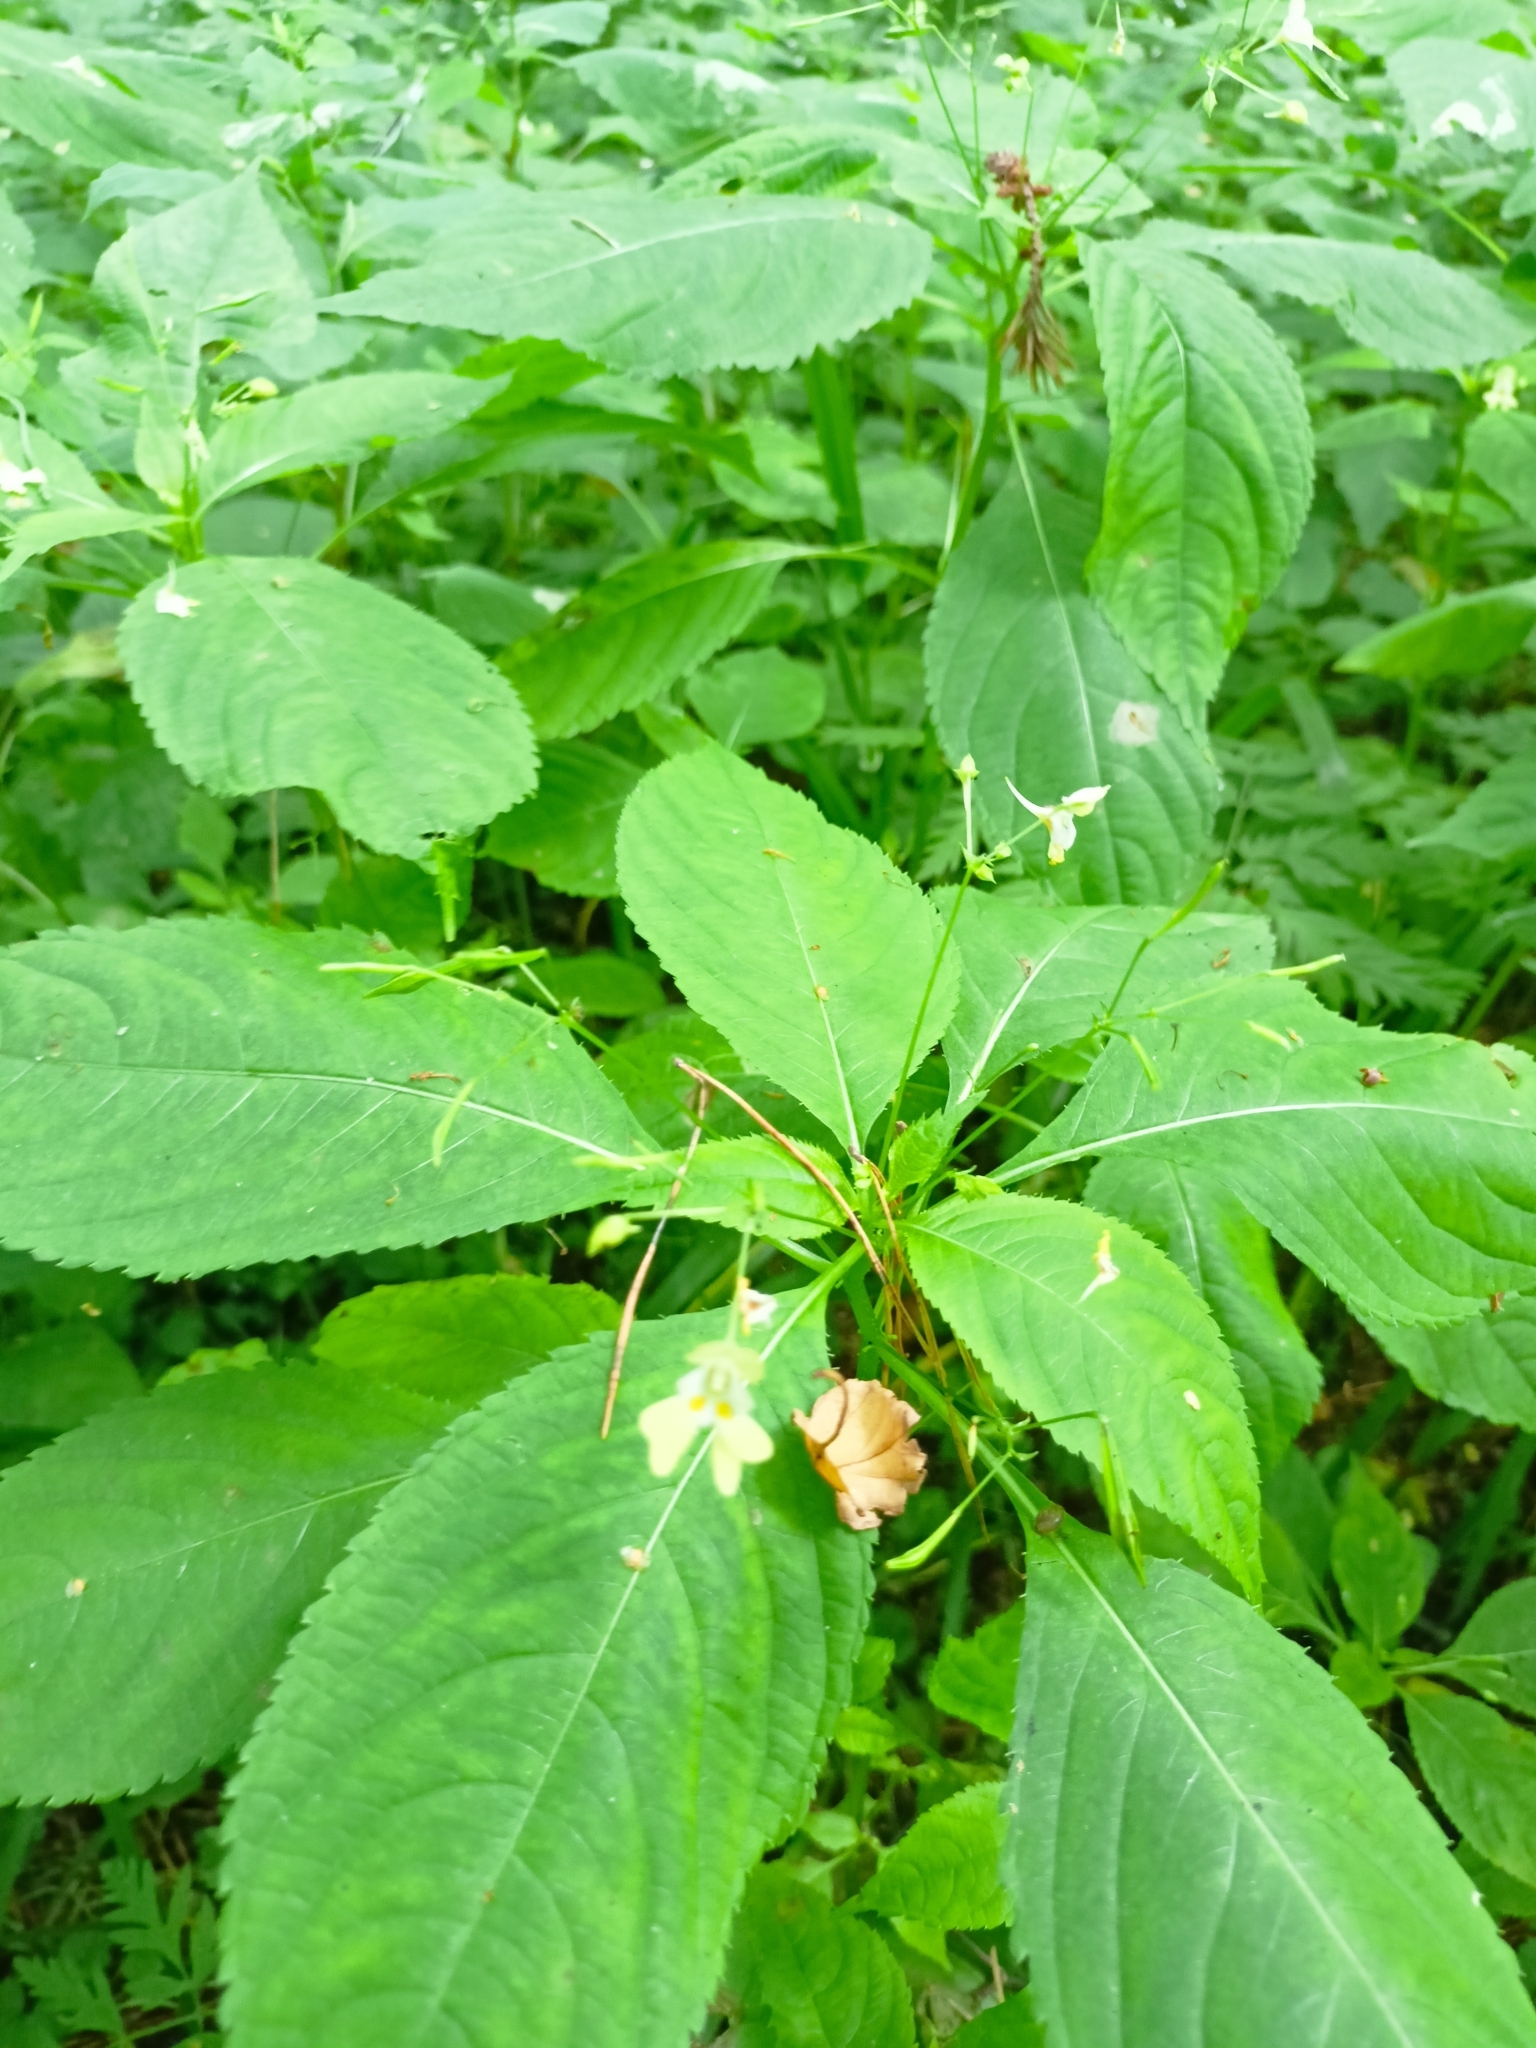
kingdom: Plantae
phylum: Tracheophyta
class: Magnoliopsida
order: Ericales
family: Balsaminaceae
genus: Impatiens
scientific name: Impatiens parviflora
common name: Small balsam
